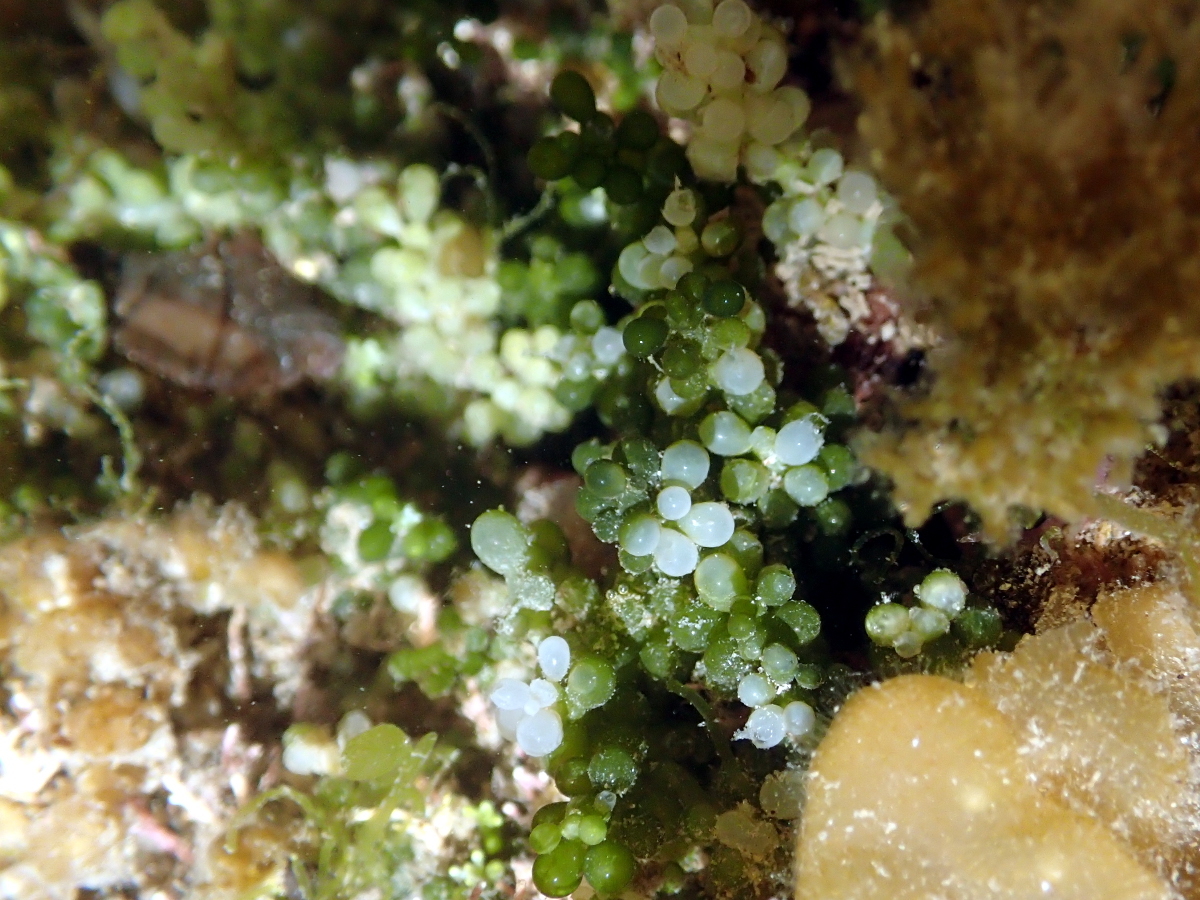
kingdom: Plantae
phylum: Chlorophyta
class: Ulvophyceae
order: Bryopsidales
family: Caulerpaceae
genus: Caulerpa
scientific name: Caulerpa geminata
